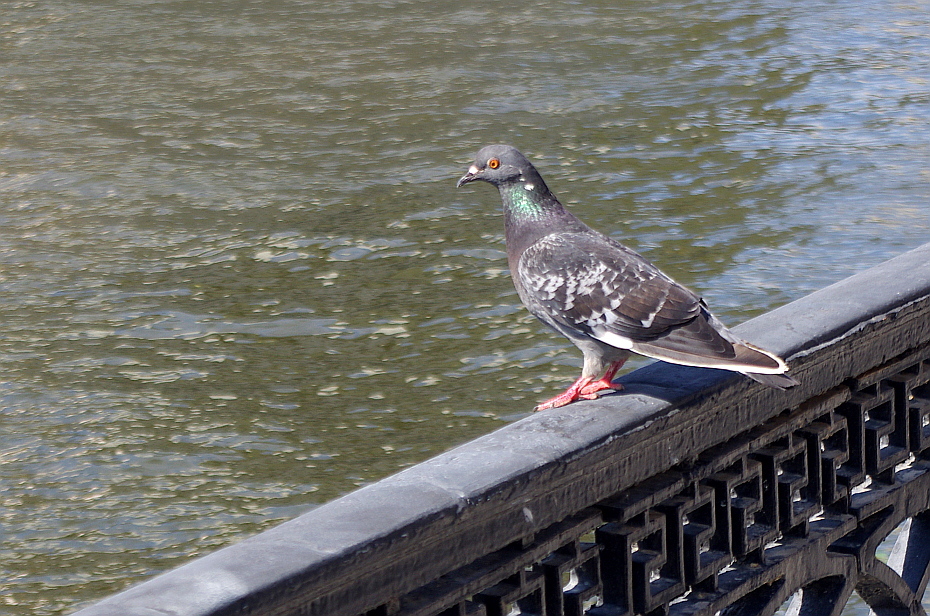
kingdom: Animalia
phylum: Chordata
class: Aves
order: Columbiformes
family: Columbidae
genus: Columba
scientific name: Columba livia
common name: Rock pigeon
